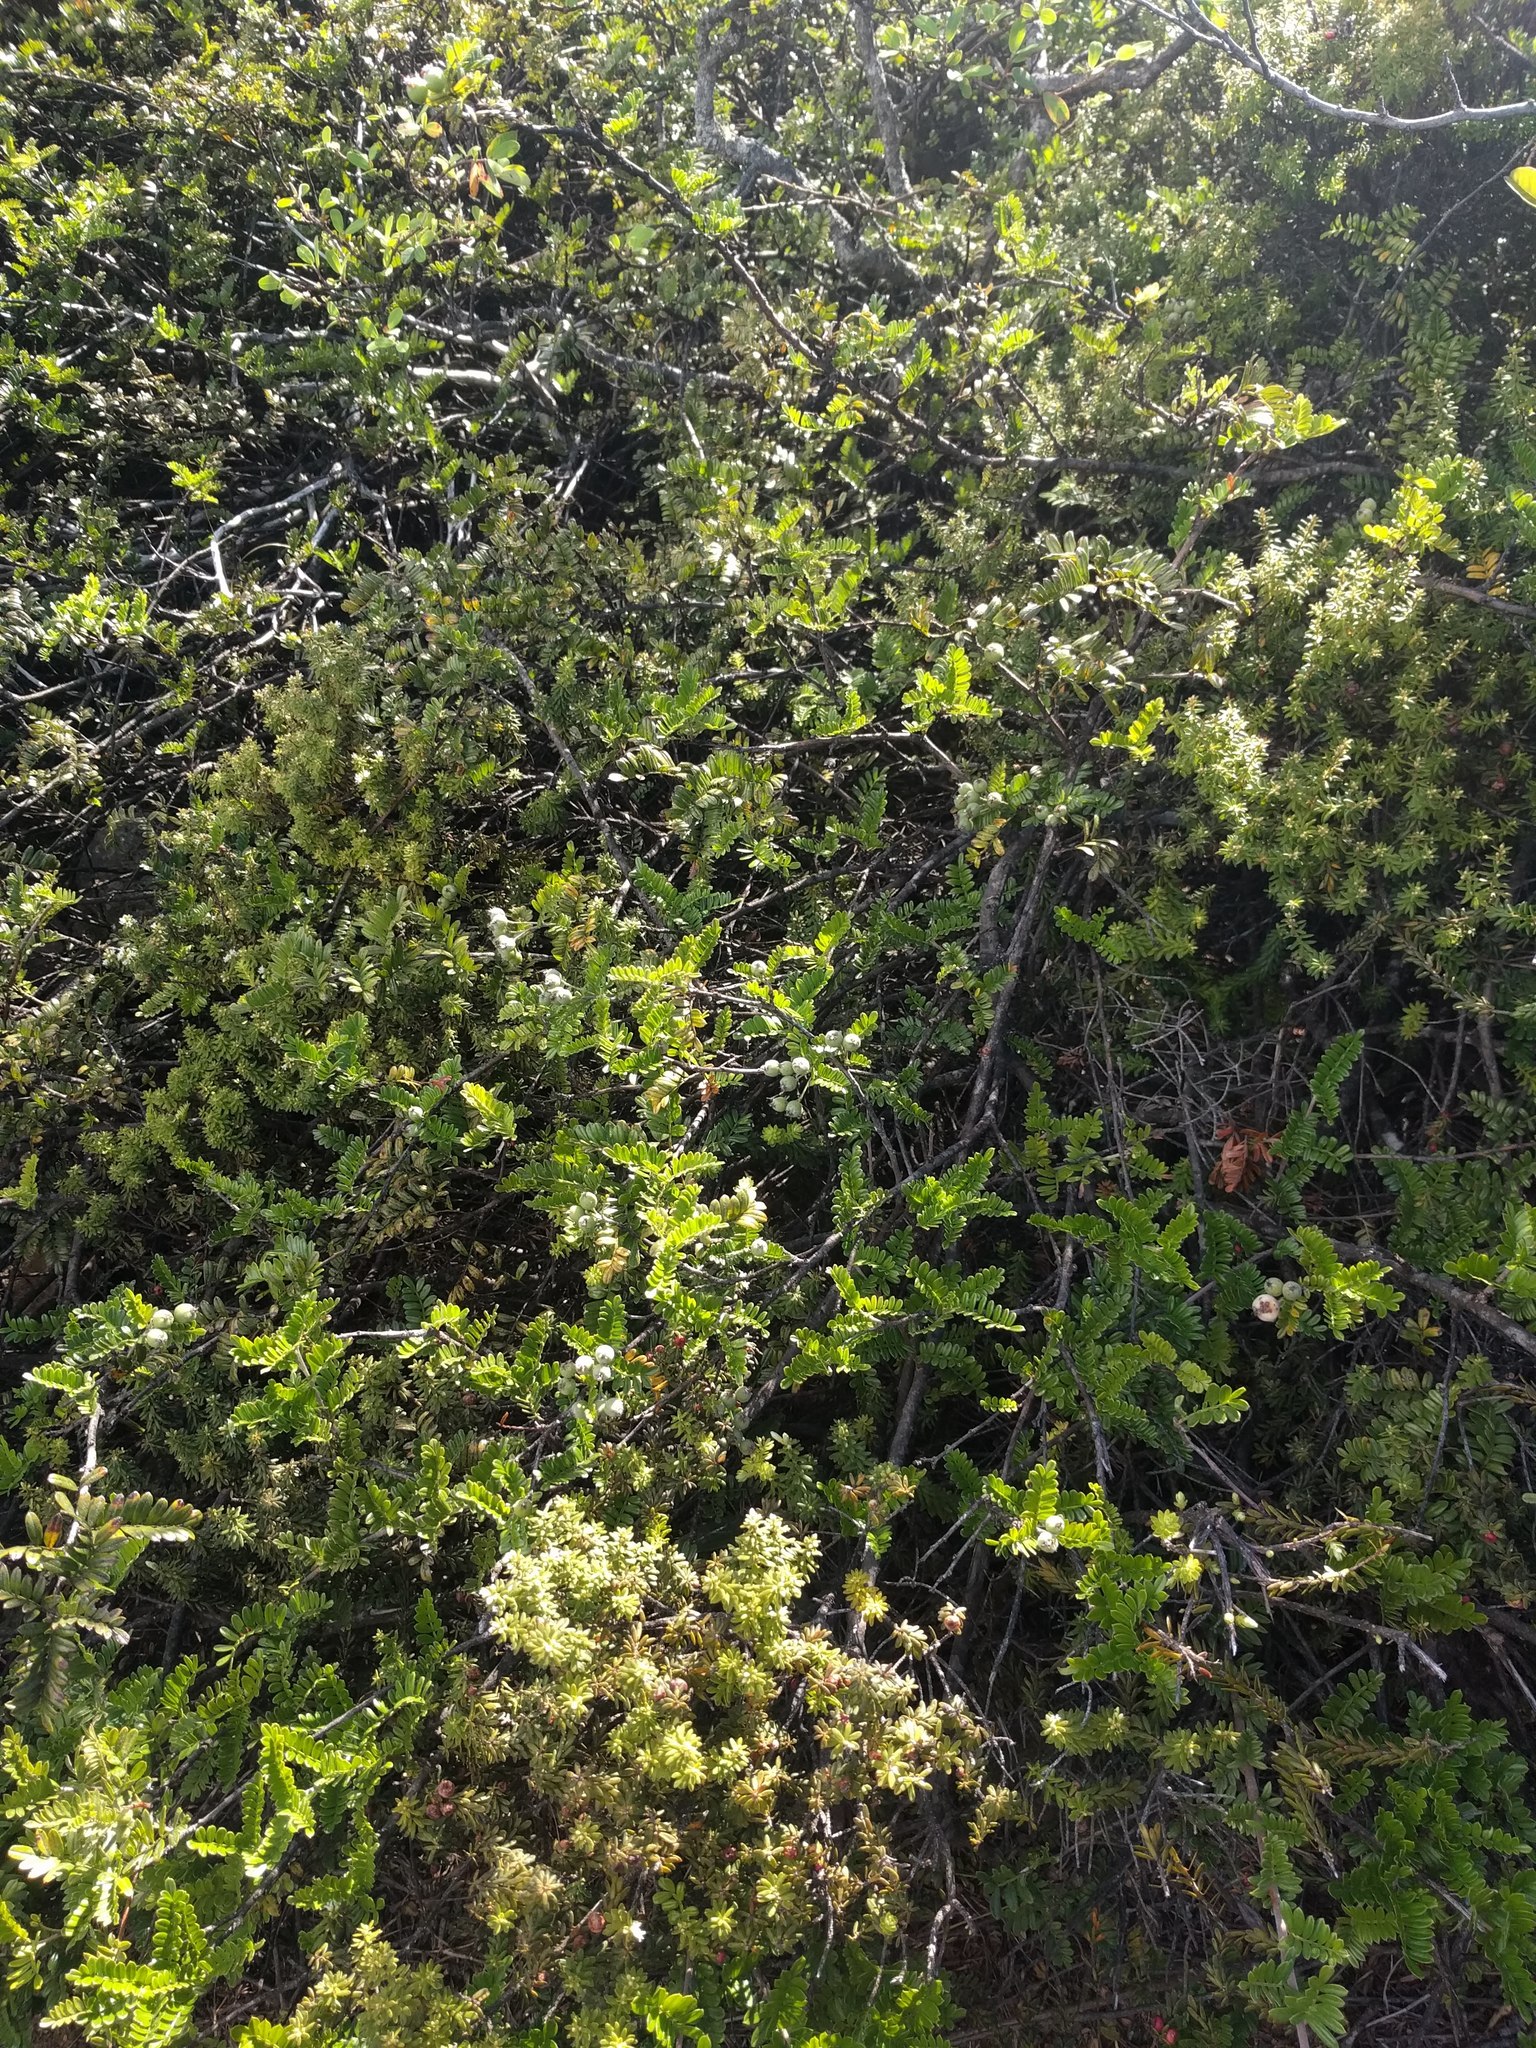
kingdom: Plantae
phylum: Tracheophyta
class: Magnoliopsida
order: Rosales
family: Rosaceae
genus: Osteomeles
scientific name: Osteomeles anthyllidifolia
